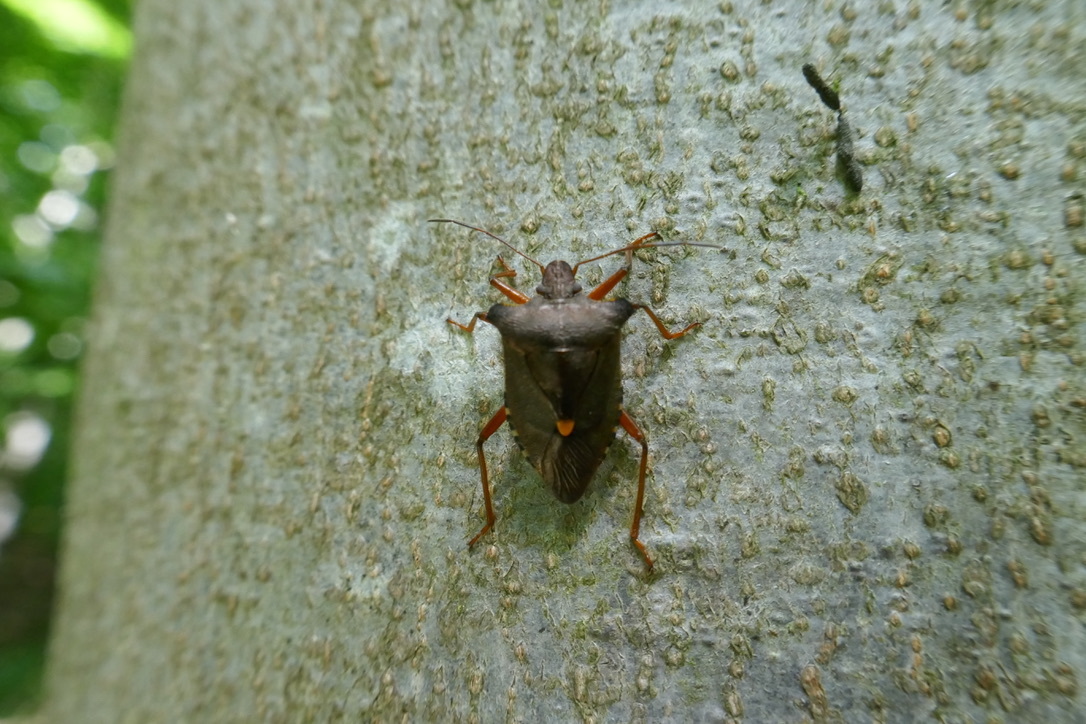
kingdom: Animalia
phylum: Arthropoda
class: Insecta
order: Hemiptera
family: Pentatomidae
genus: Pentatoma
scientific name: Pentatoma rufipes
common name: Forest bug
